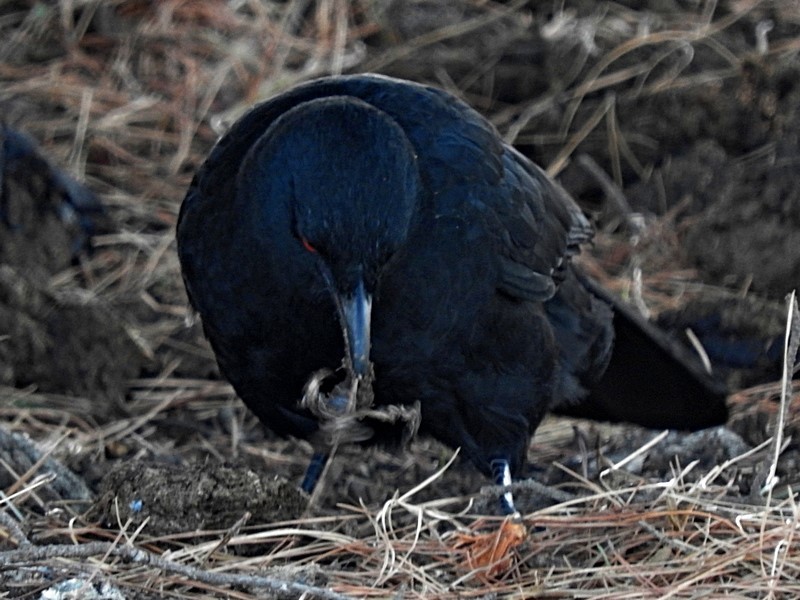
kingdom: Animalia
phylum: Chordata
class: Aves
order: Passeriformes
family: Corcoracidae
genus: Corcorax
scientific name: Corcorax melanoramphos
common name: White-winged chough
